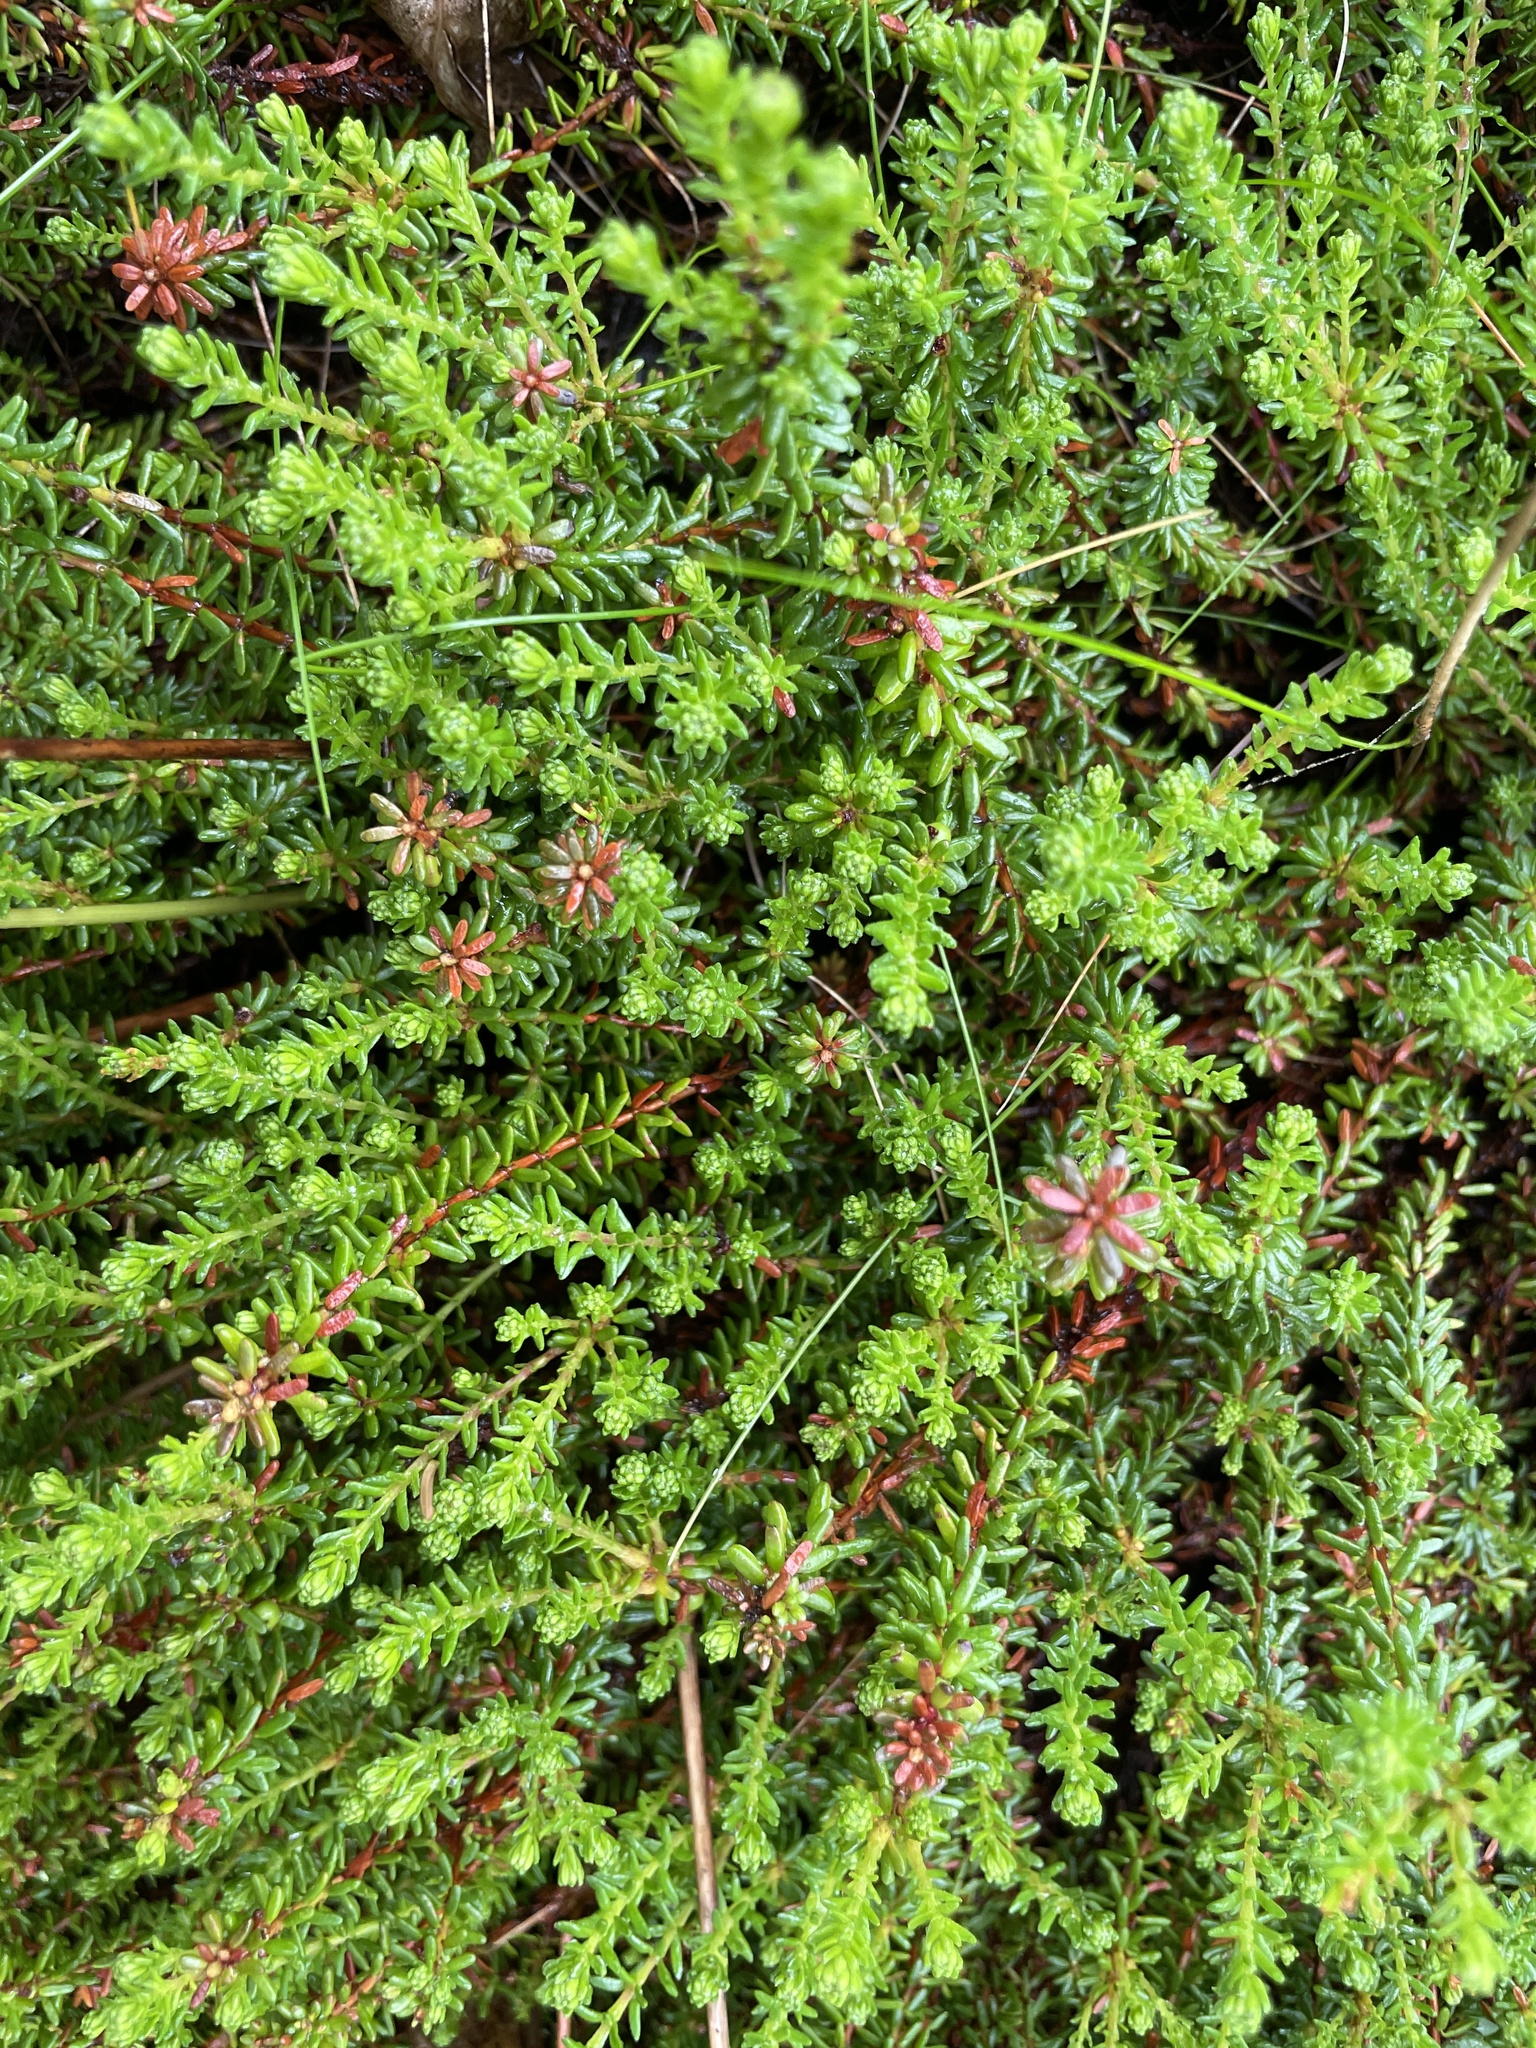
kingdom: Plantae
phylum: Tracheophyta
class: Magnoliopsida
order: Ericales
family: Ericaceae
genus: Empetrum
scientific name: Empetrum nigrum
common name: Black crowberry
